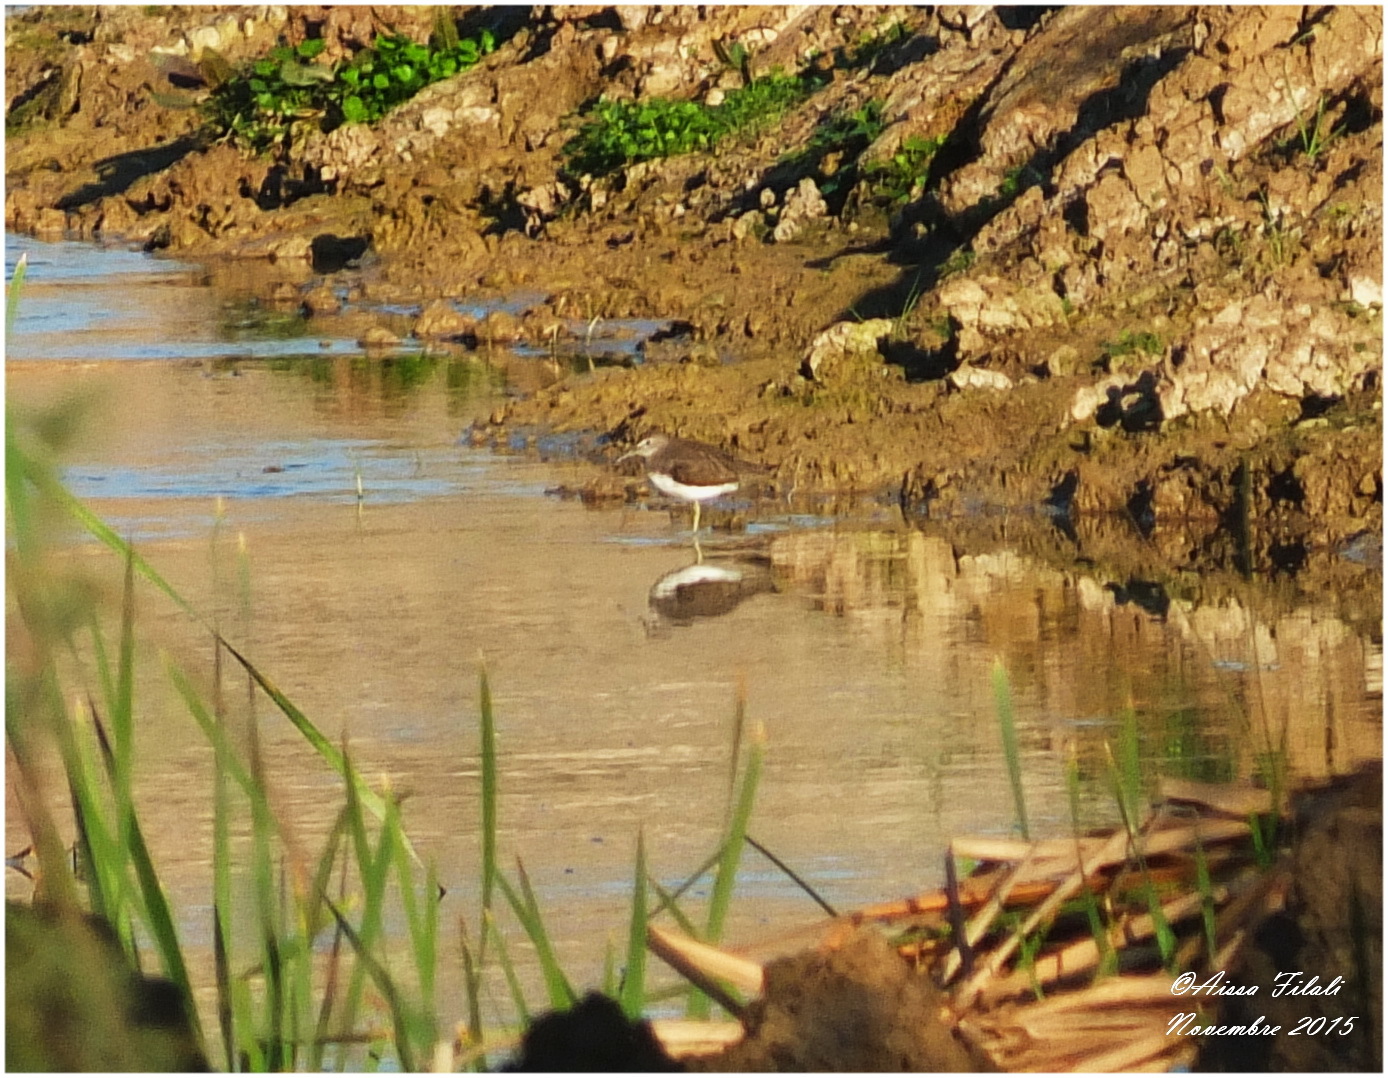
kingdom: Animalia
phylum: Chordata
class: Aves
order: Charadriiformes
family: Scolopacidae
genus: Tringa
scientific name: Tringa ochropus
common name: Green sandpiper
